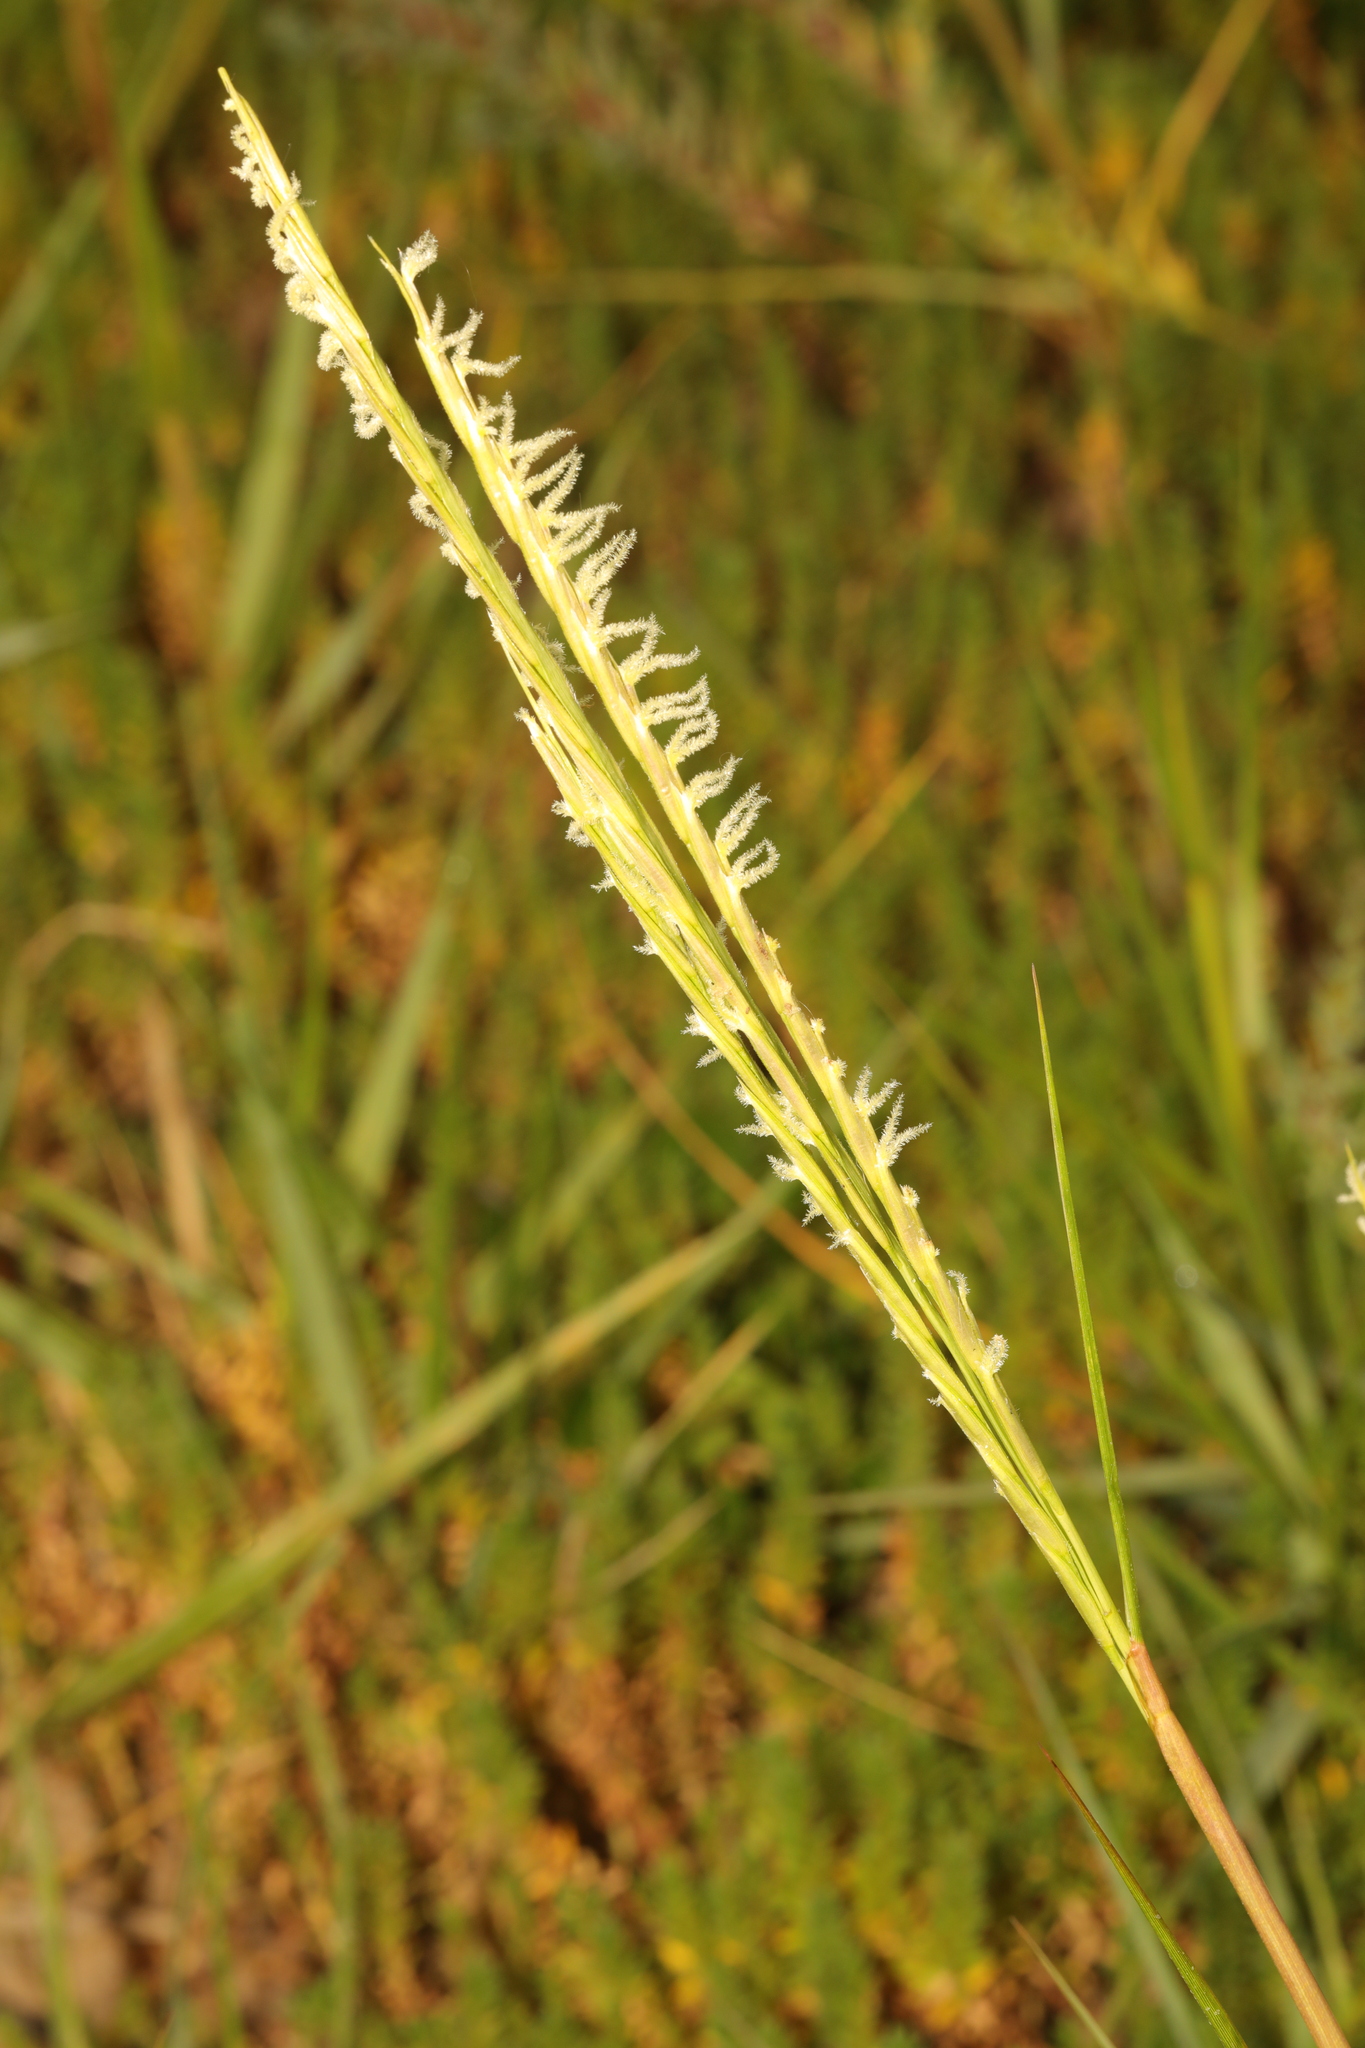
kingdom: Plantae
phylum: Tracheophyta
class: Liliopsida
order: Poales
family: Poaceae
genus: Sporobolus
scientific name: Sporobolus anglicus
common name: English cordgrass
